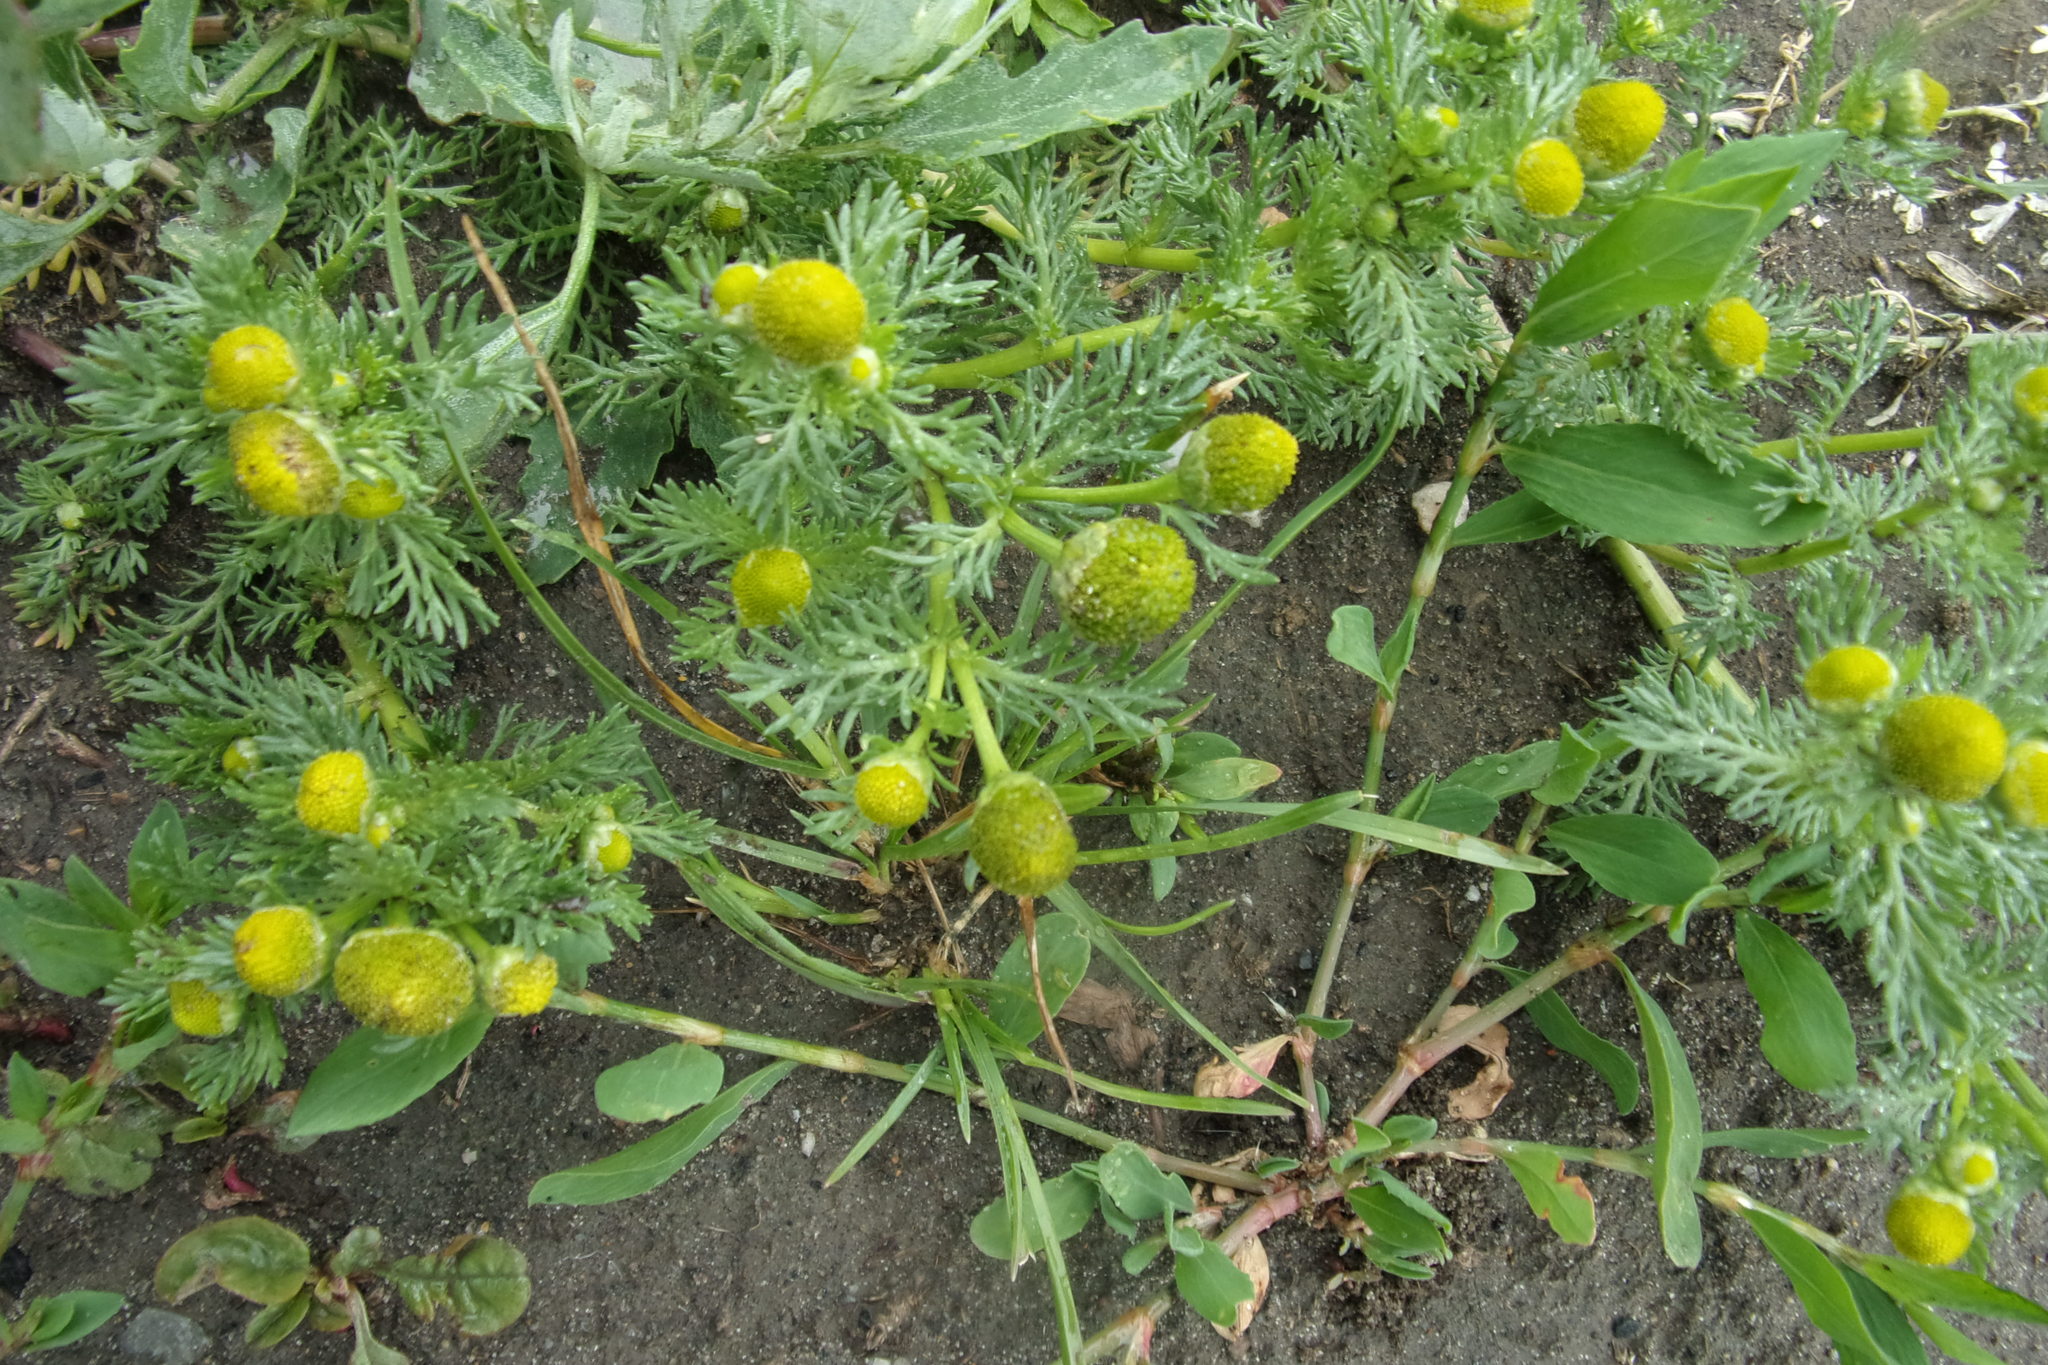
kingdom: Plantae
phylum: Tracheophyta
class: Magnoliopsida
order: Asterales
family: Asteraceae
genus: Matricaria
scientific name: Matricaria discoidea
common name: Disc mayweed
